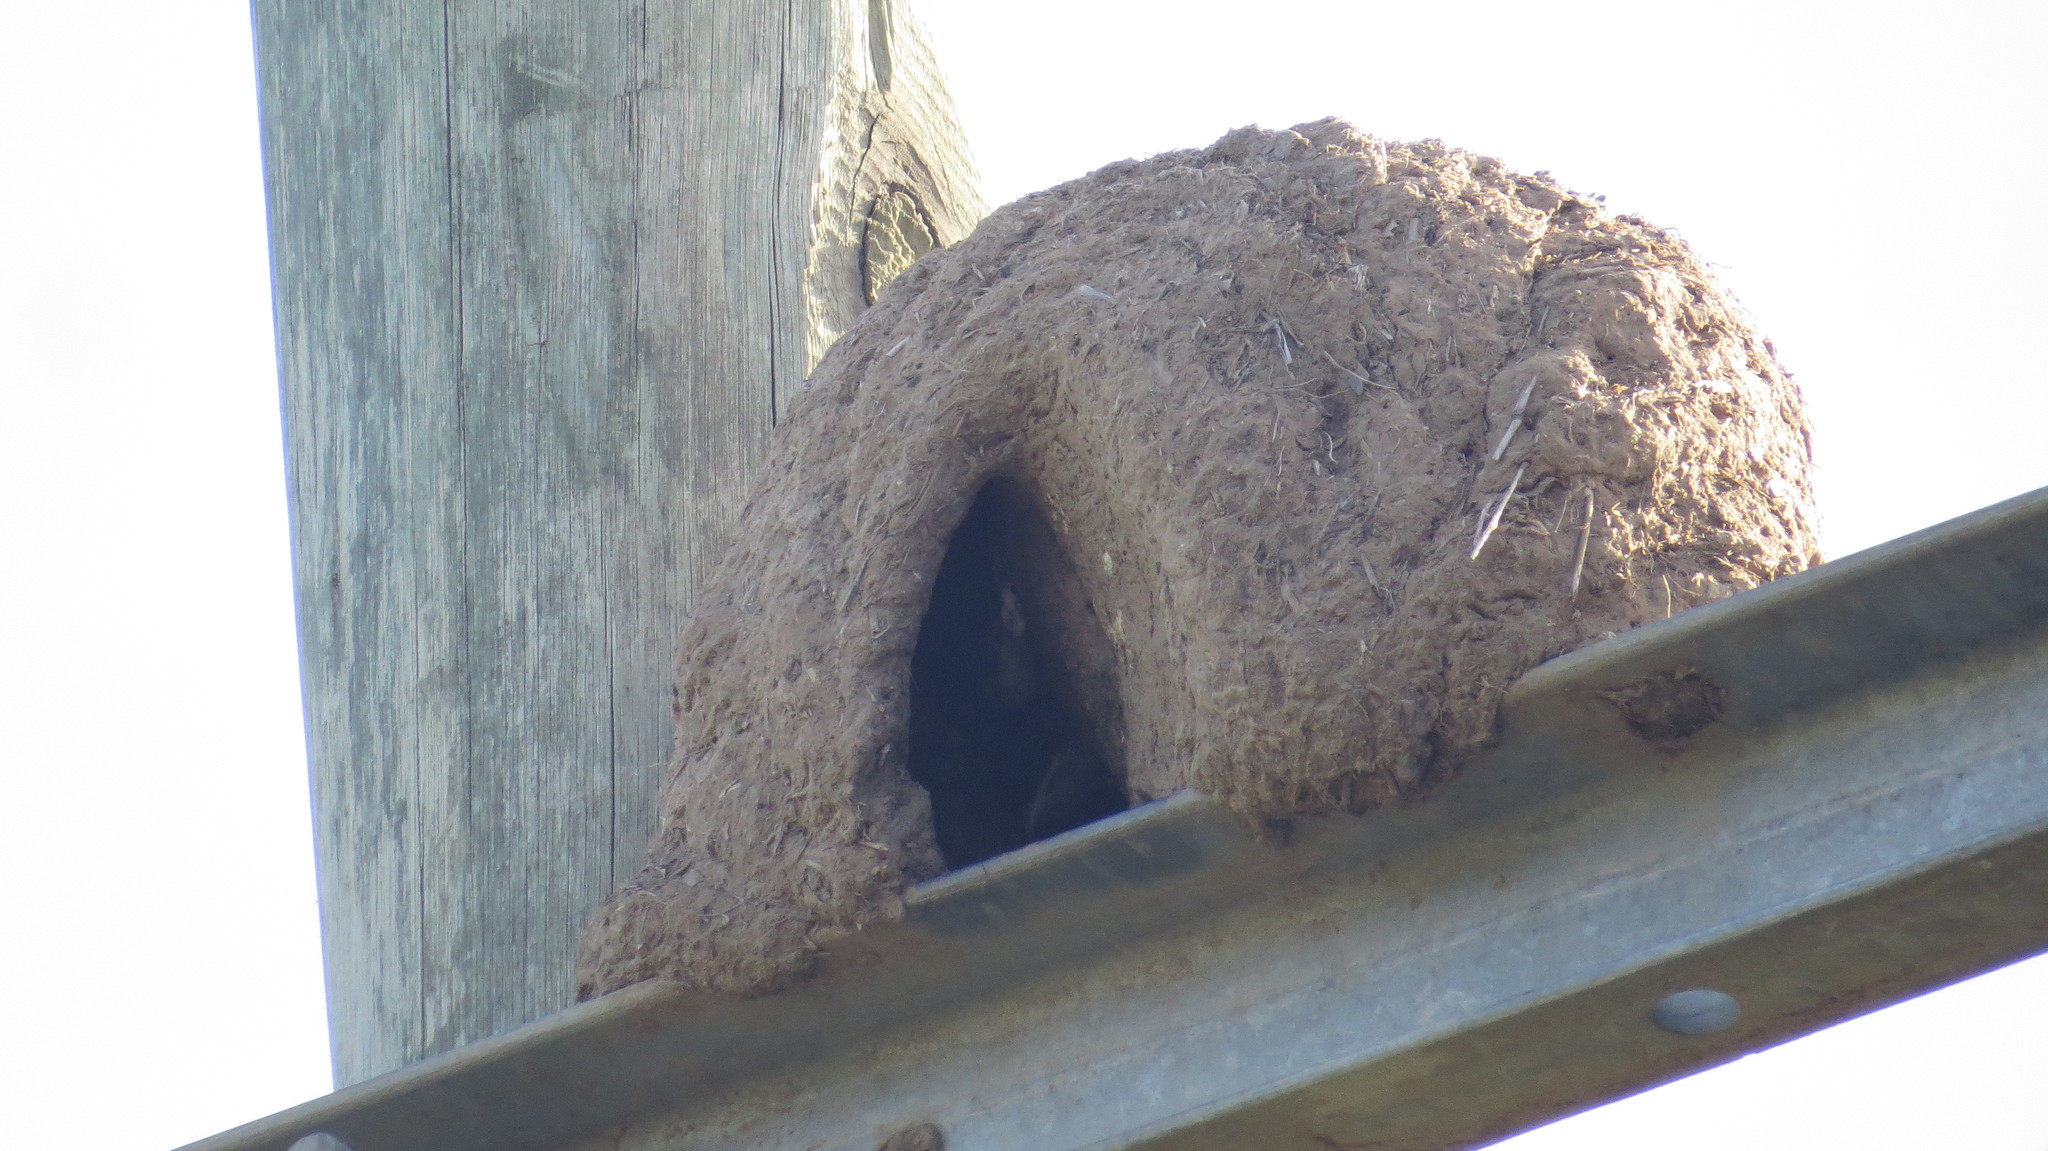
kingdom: Animalia
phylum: Chordata
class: Aves
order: Passeriformes
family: Furnariidae
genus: Furnarius
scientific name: Furnarius rufus
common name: Rufous hornero
